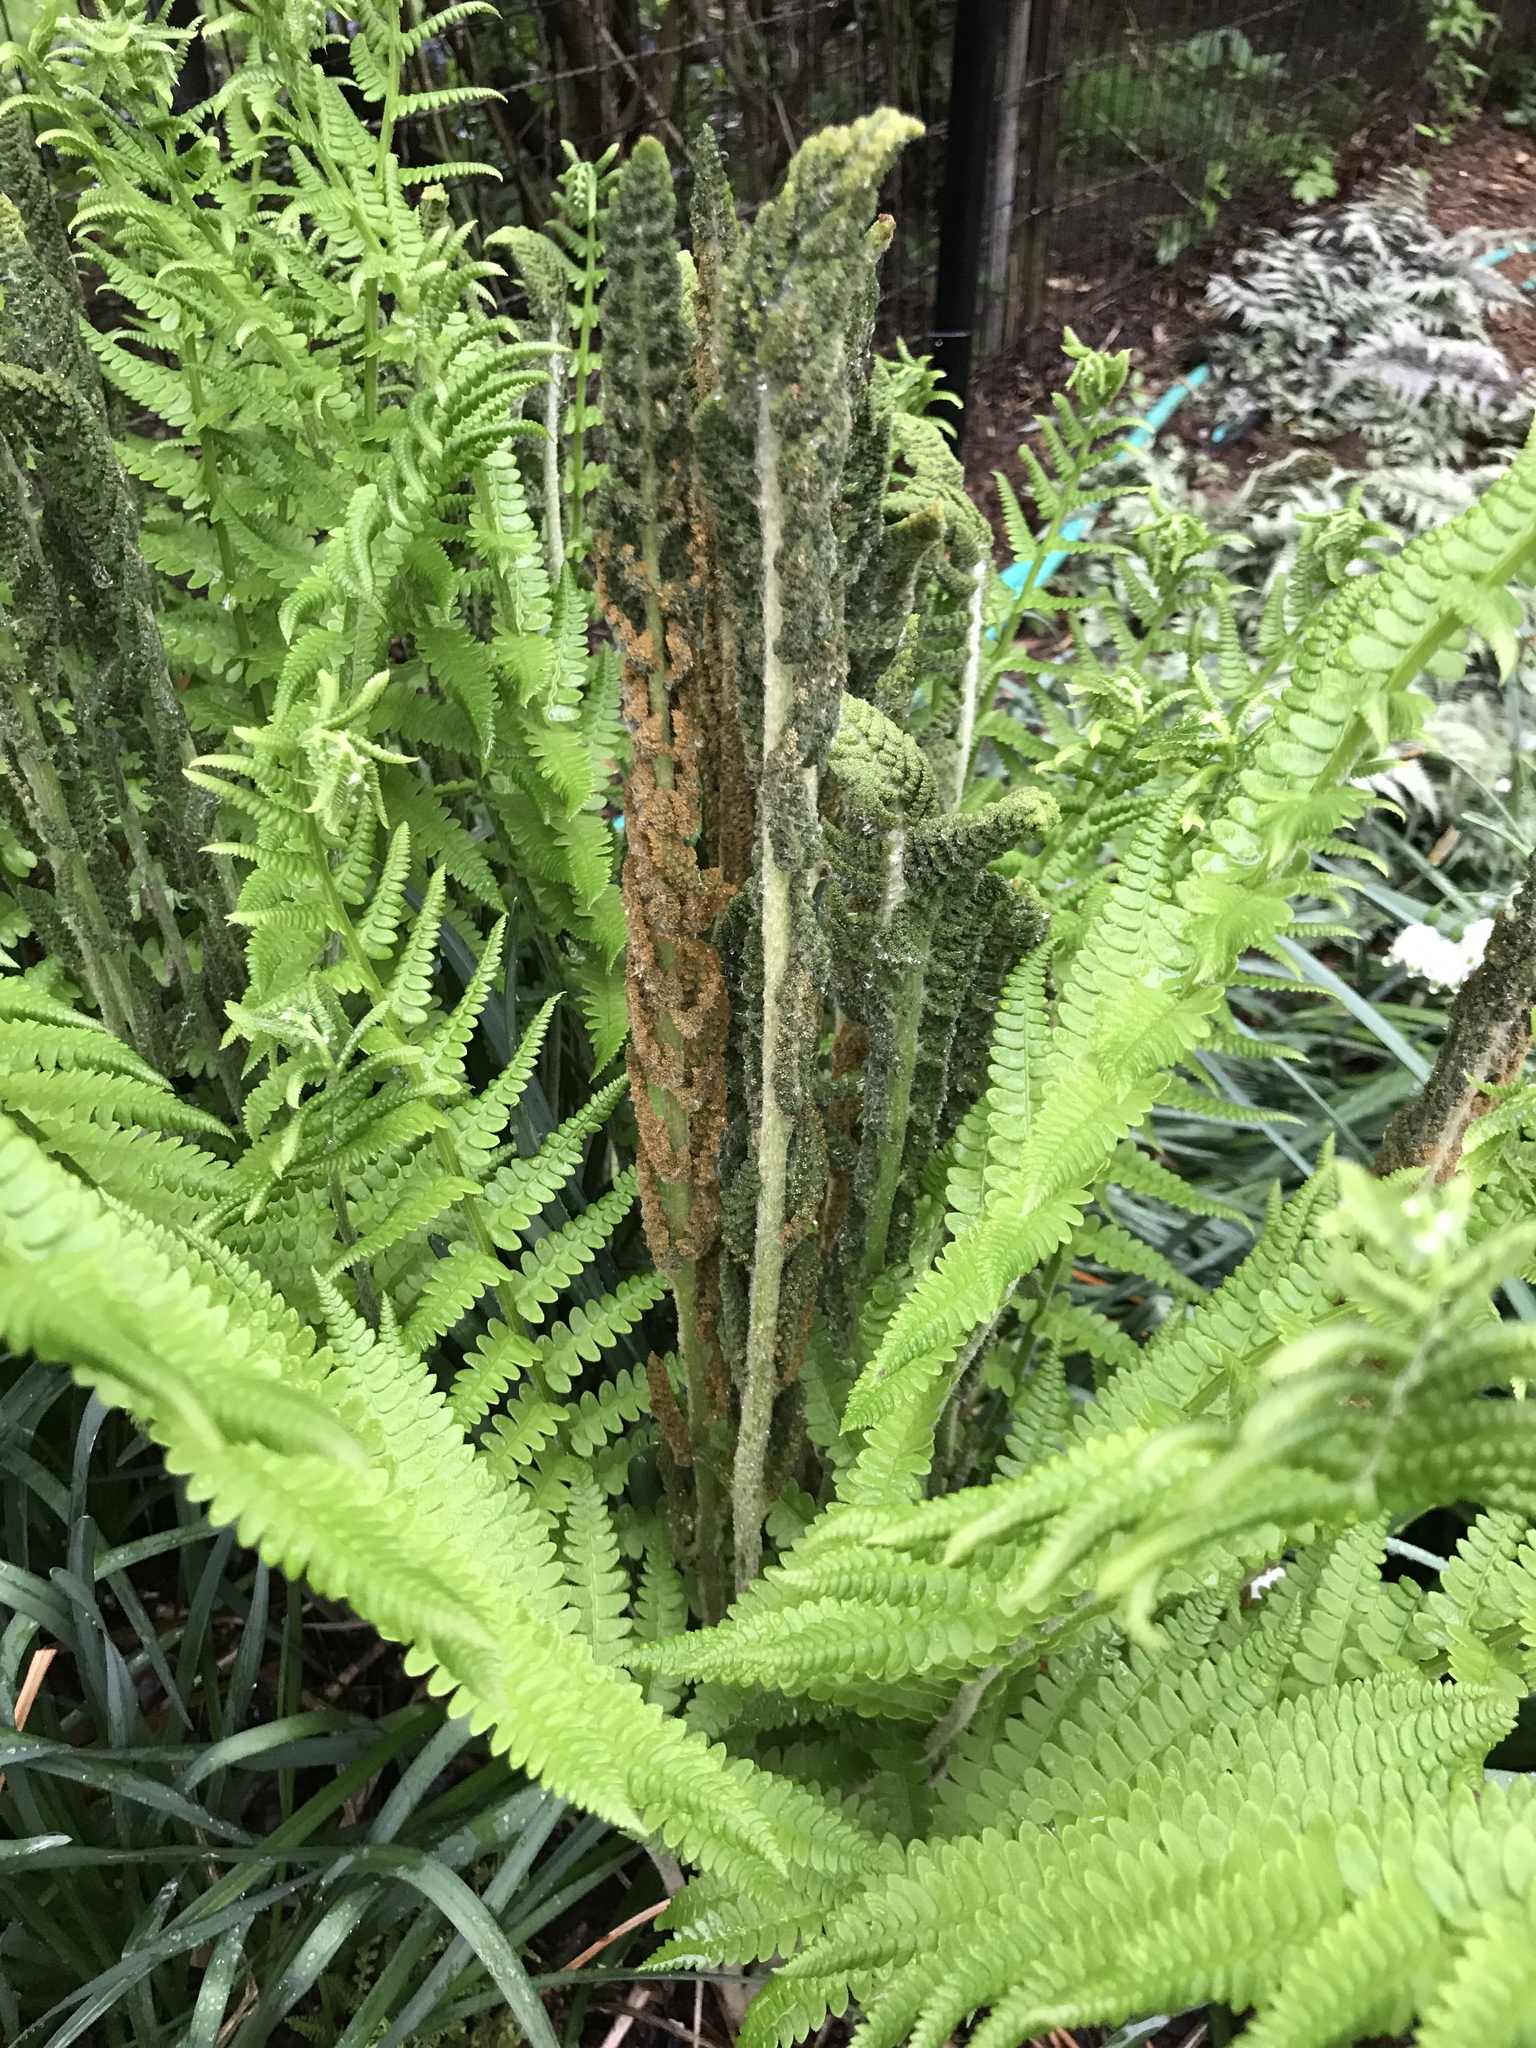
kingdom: Plantae
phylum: Tracheophyta
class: Polypodiopsida
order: Osmundales
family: Osmundaceae
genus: Osmundastrum
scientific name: Osmundastrum cinnamomeum
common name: Cinnamon fern
